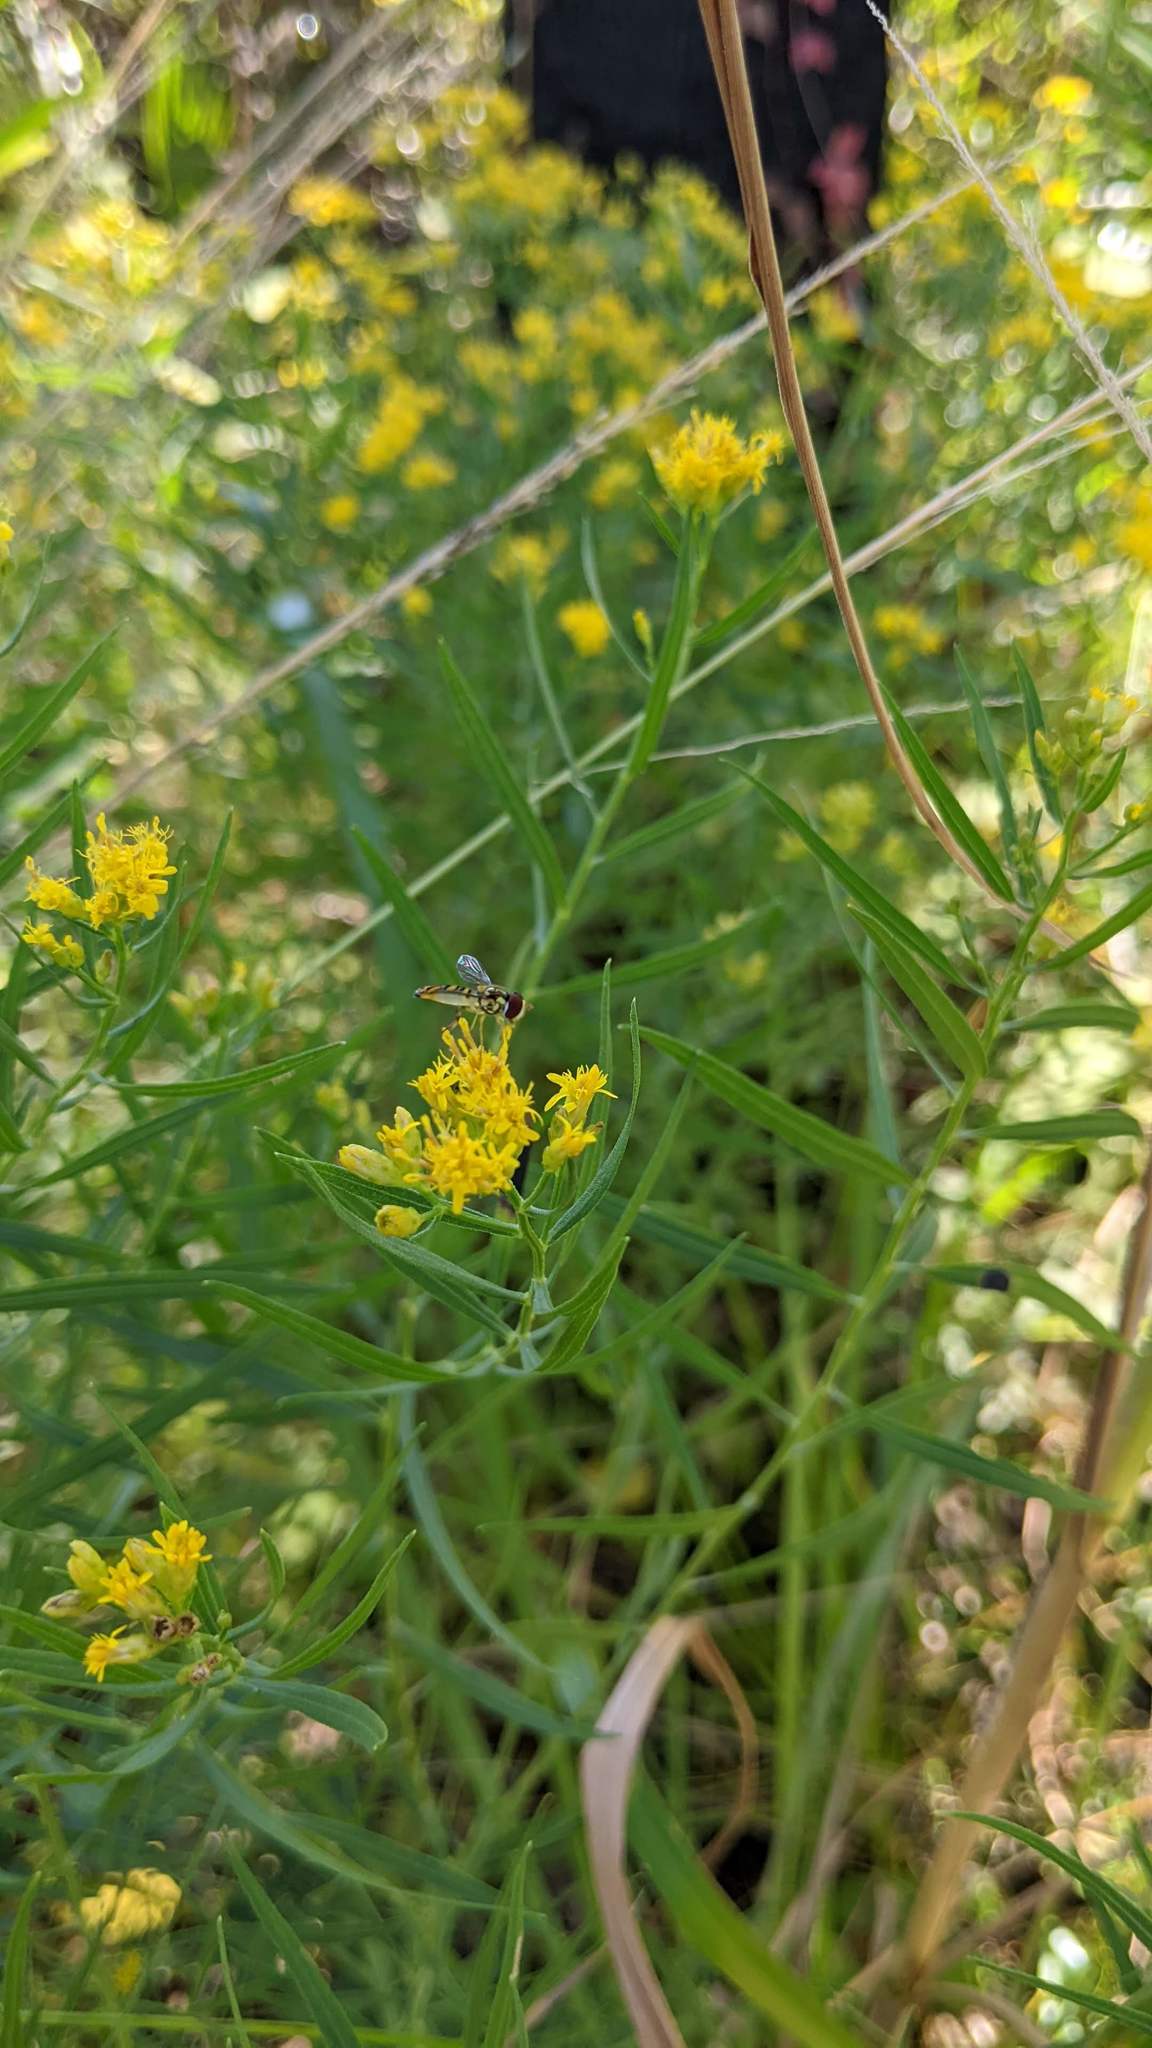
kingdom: Animalia
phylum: Arthropoda
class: Insecta
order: Diptera
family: Syrphidae
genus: Allograpta
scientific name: Allograpta obliqua
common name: Common oblique syrphid
